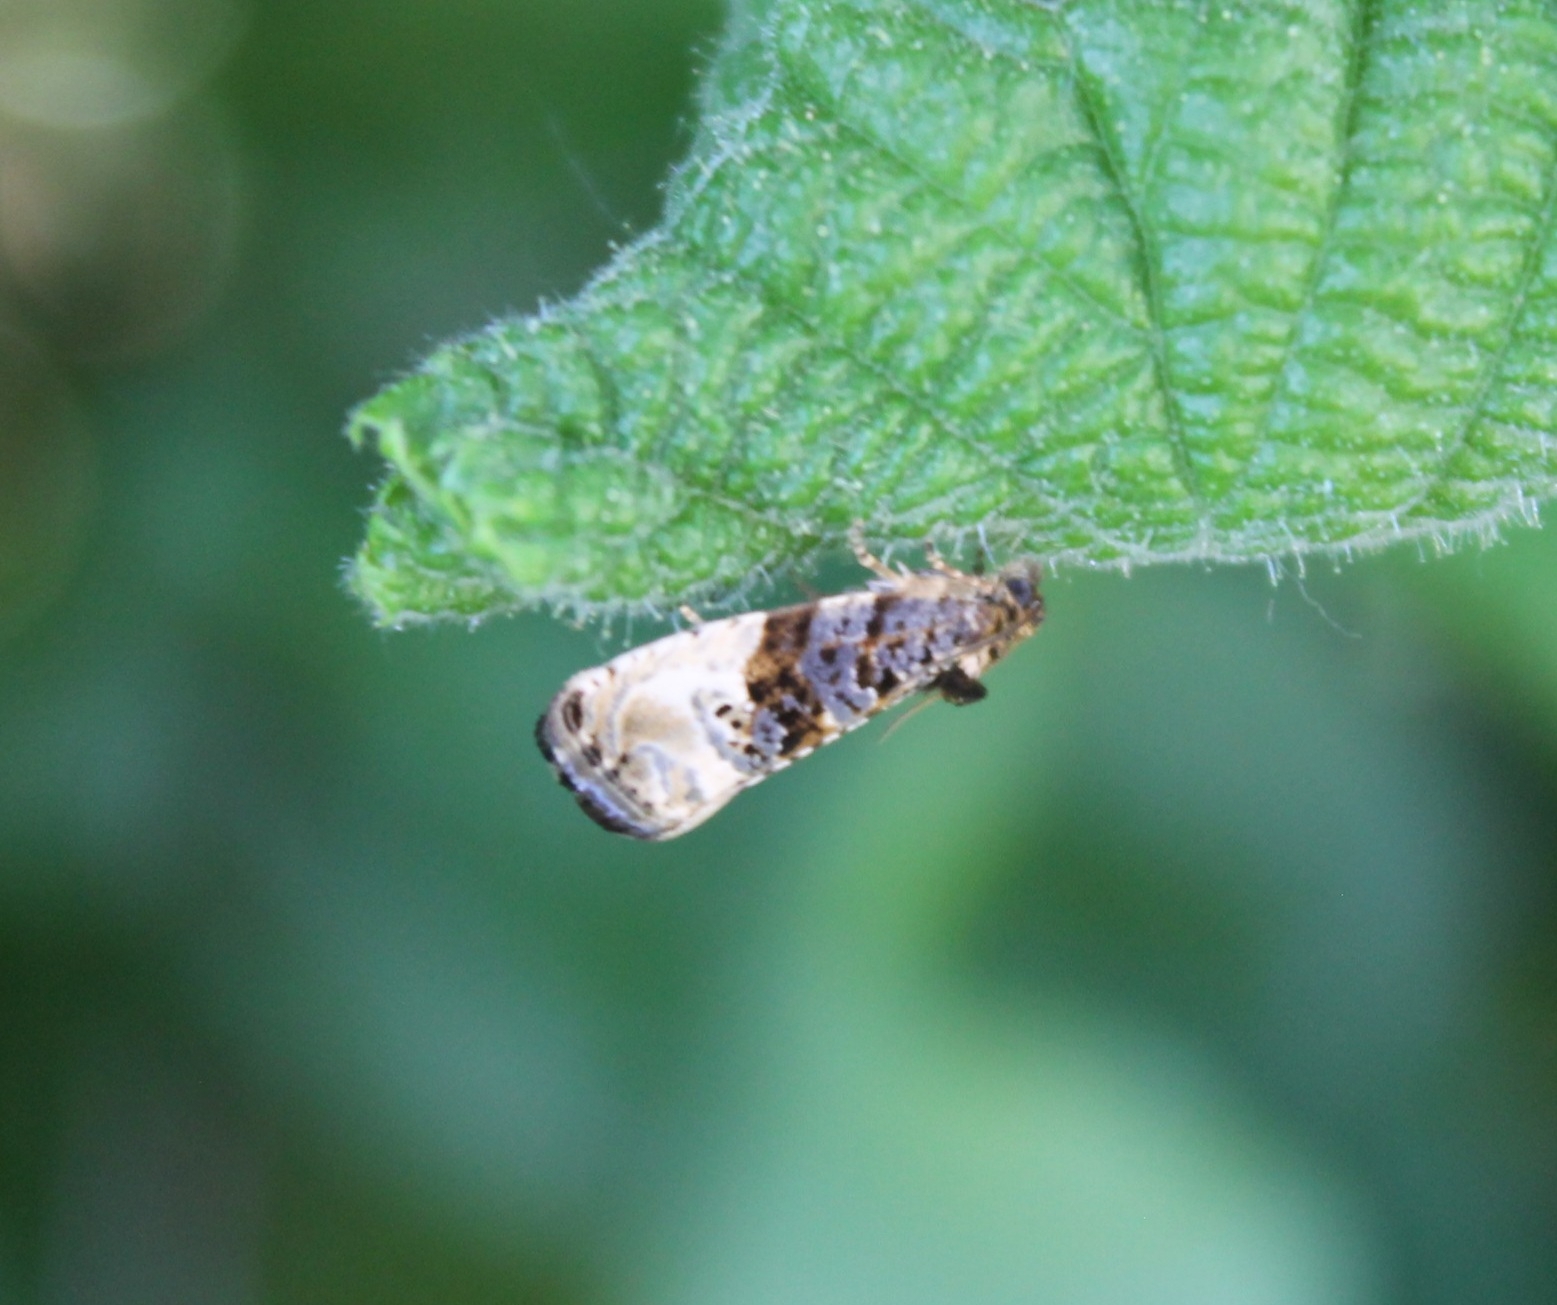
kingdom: Animalia
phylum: Arthropoda
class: Insecta
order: Lepidoptera
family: Tortricidae
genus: Hedya
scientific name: Hedya nubiferana
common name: Marbled orchard tortrix
